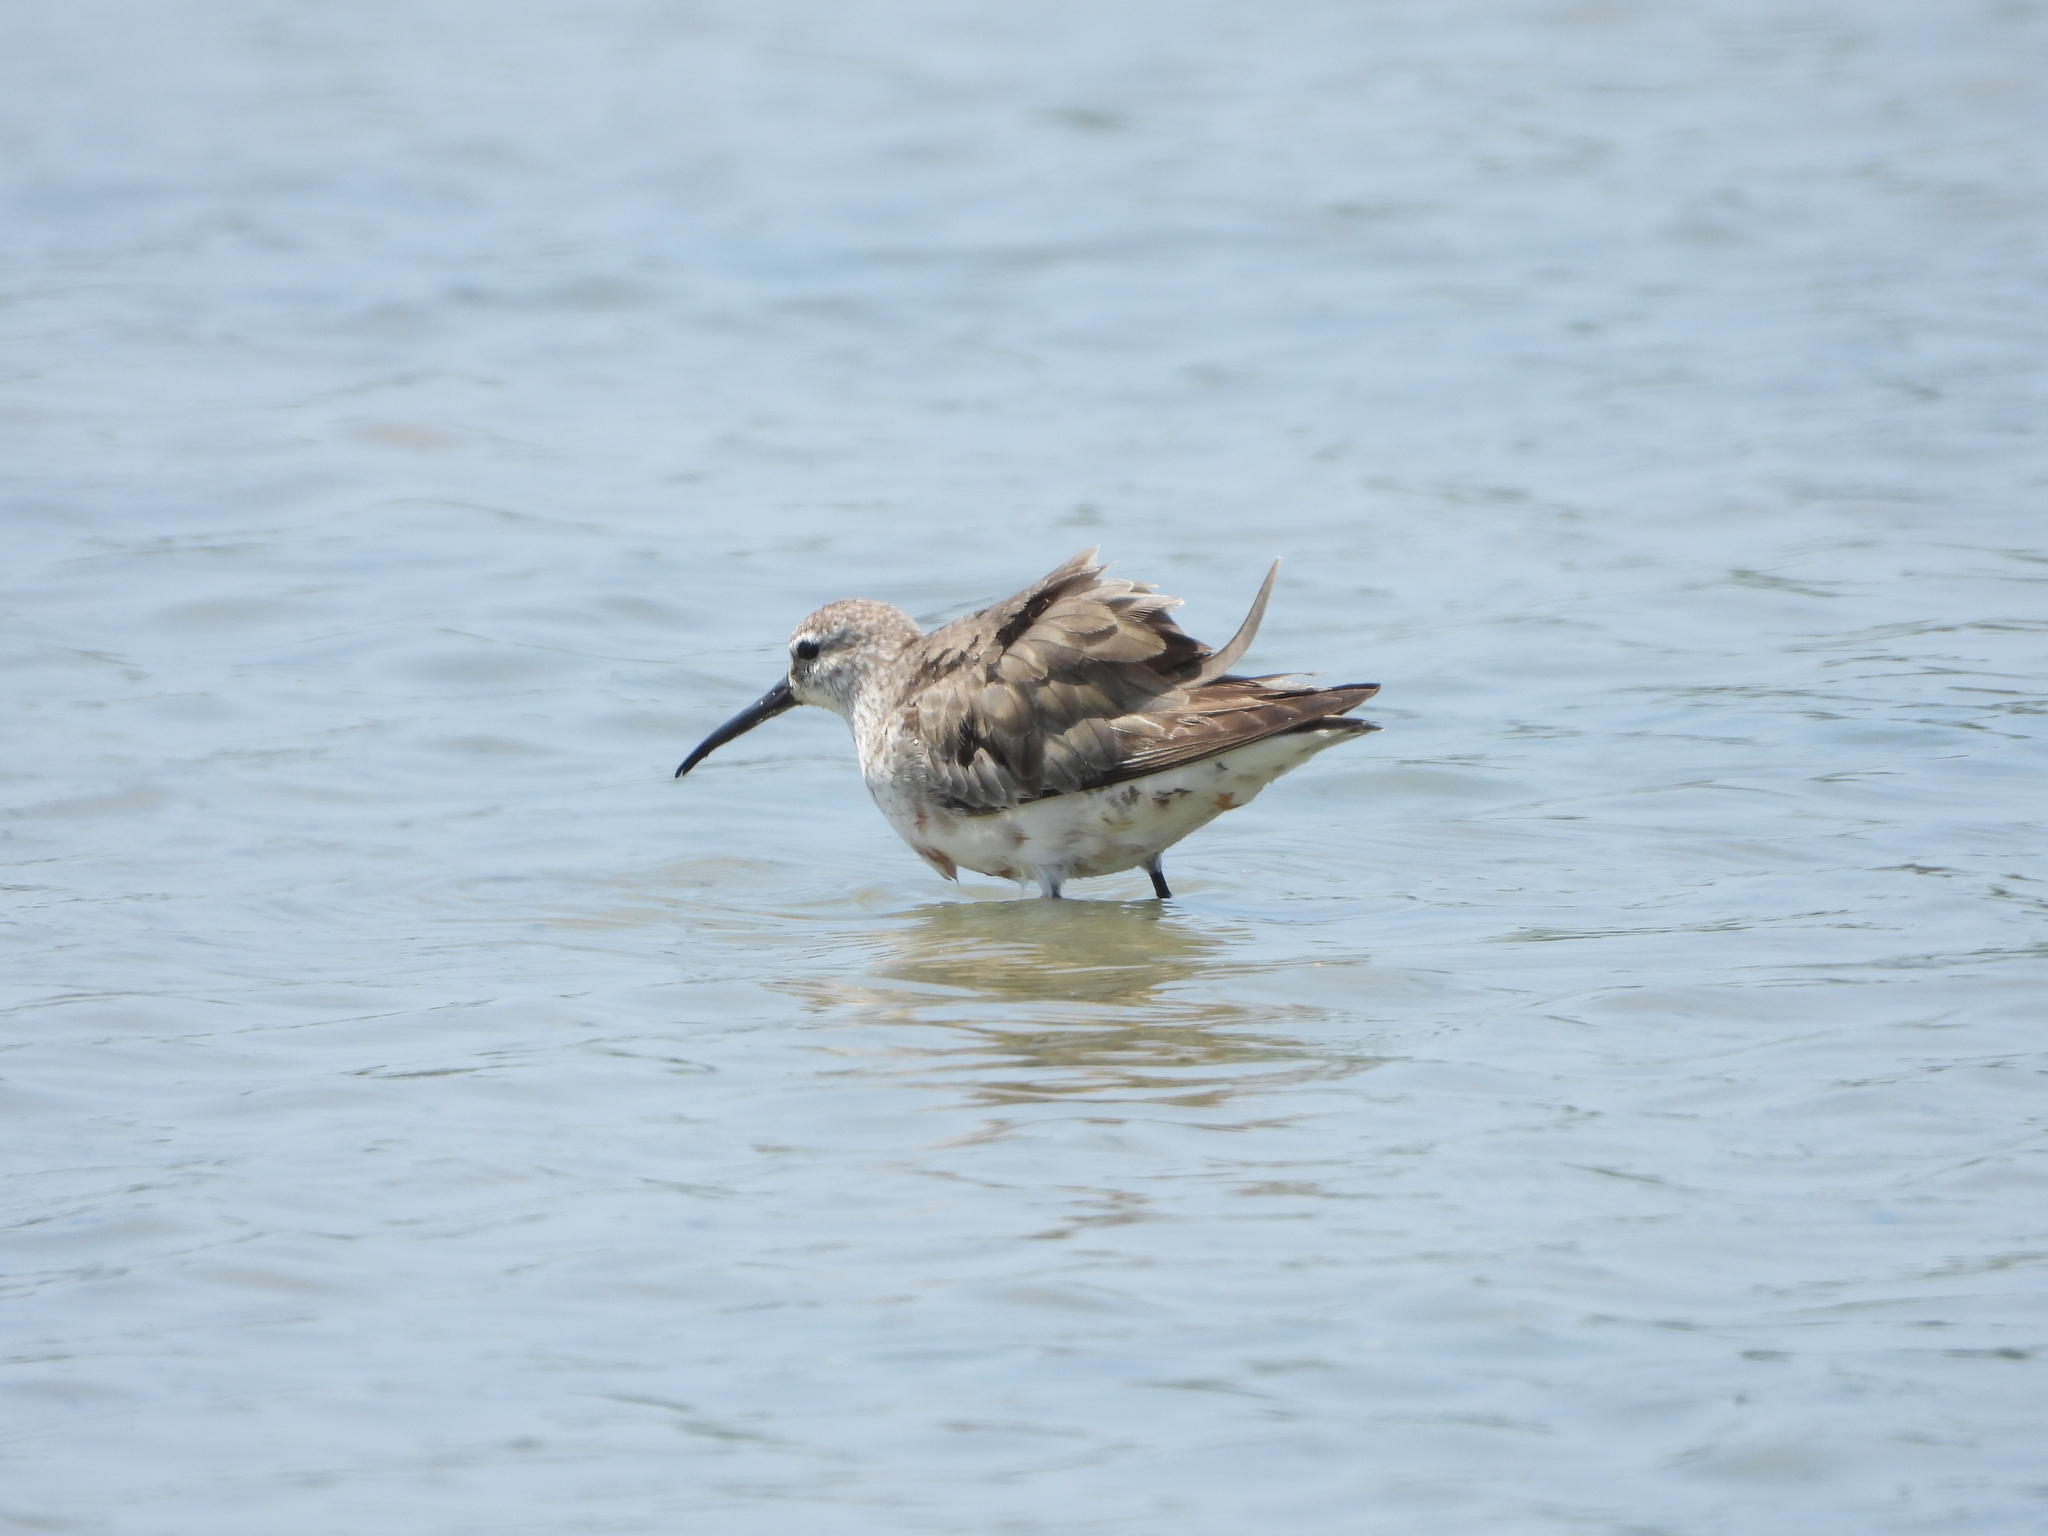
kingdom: Animalia
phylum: Chordata
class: Aves
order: Charadriiformes
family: Scolopacidae
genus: Calidris
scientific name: Calidris ferruginea
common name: Curlew sandpiper
